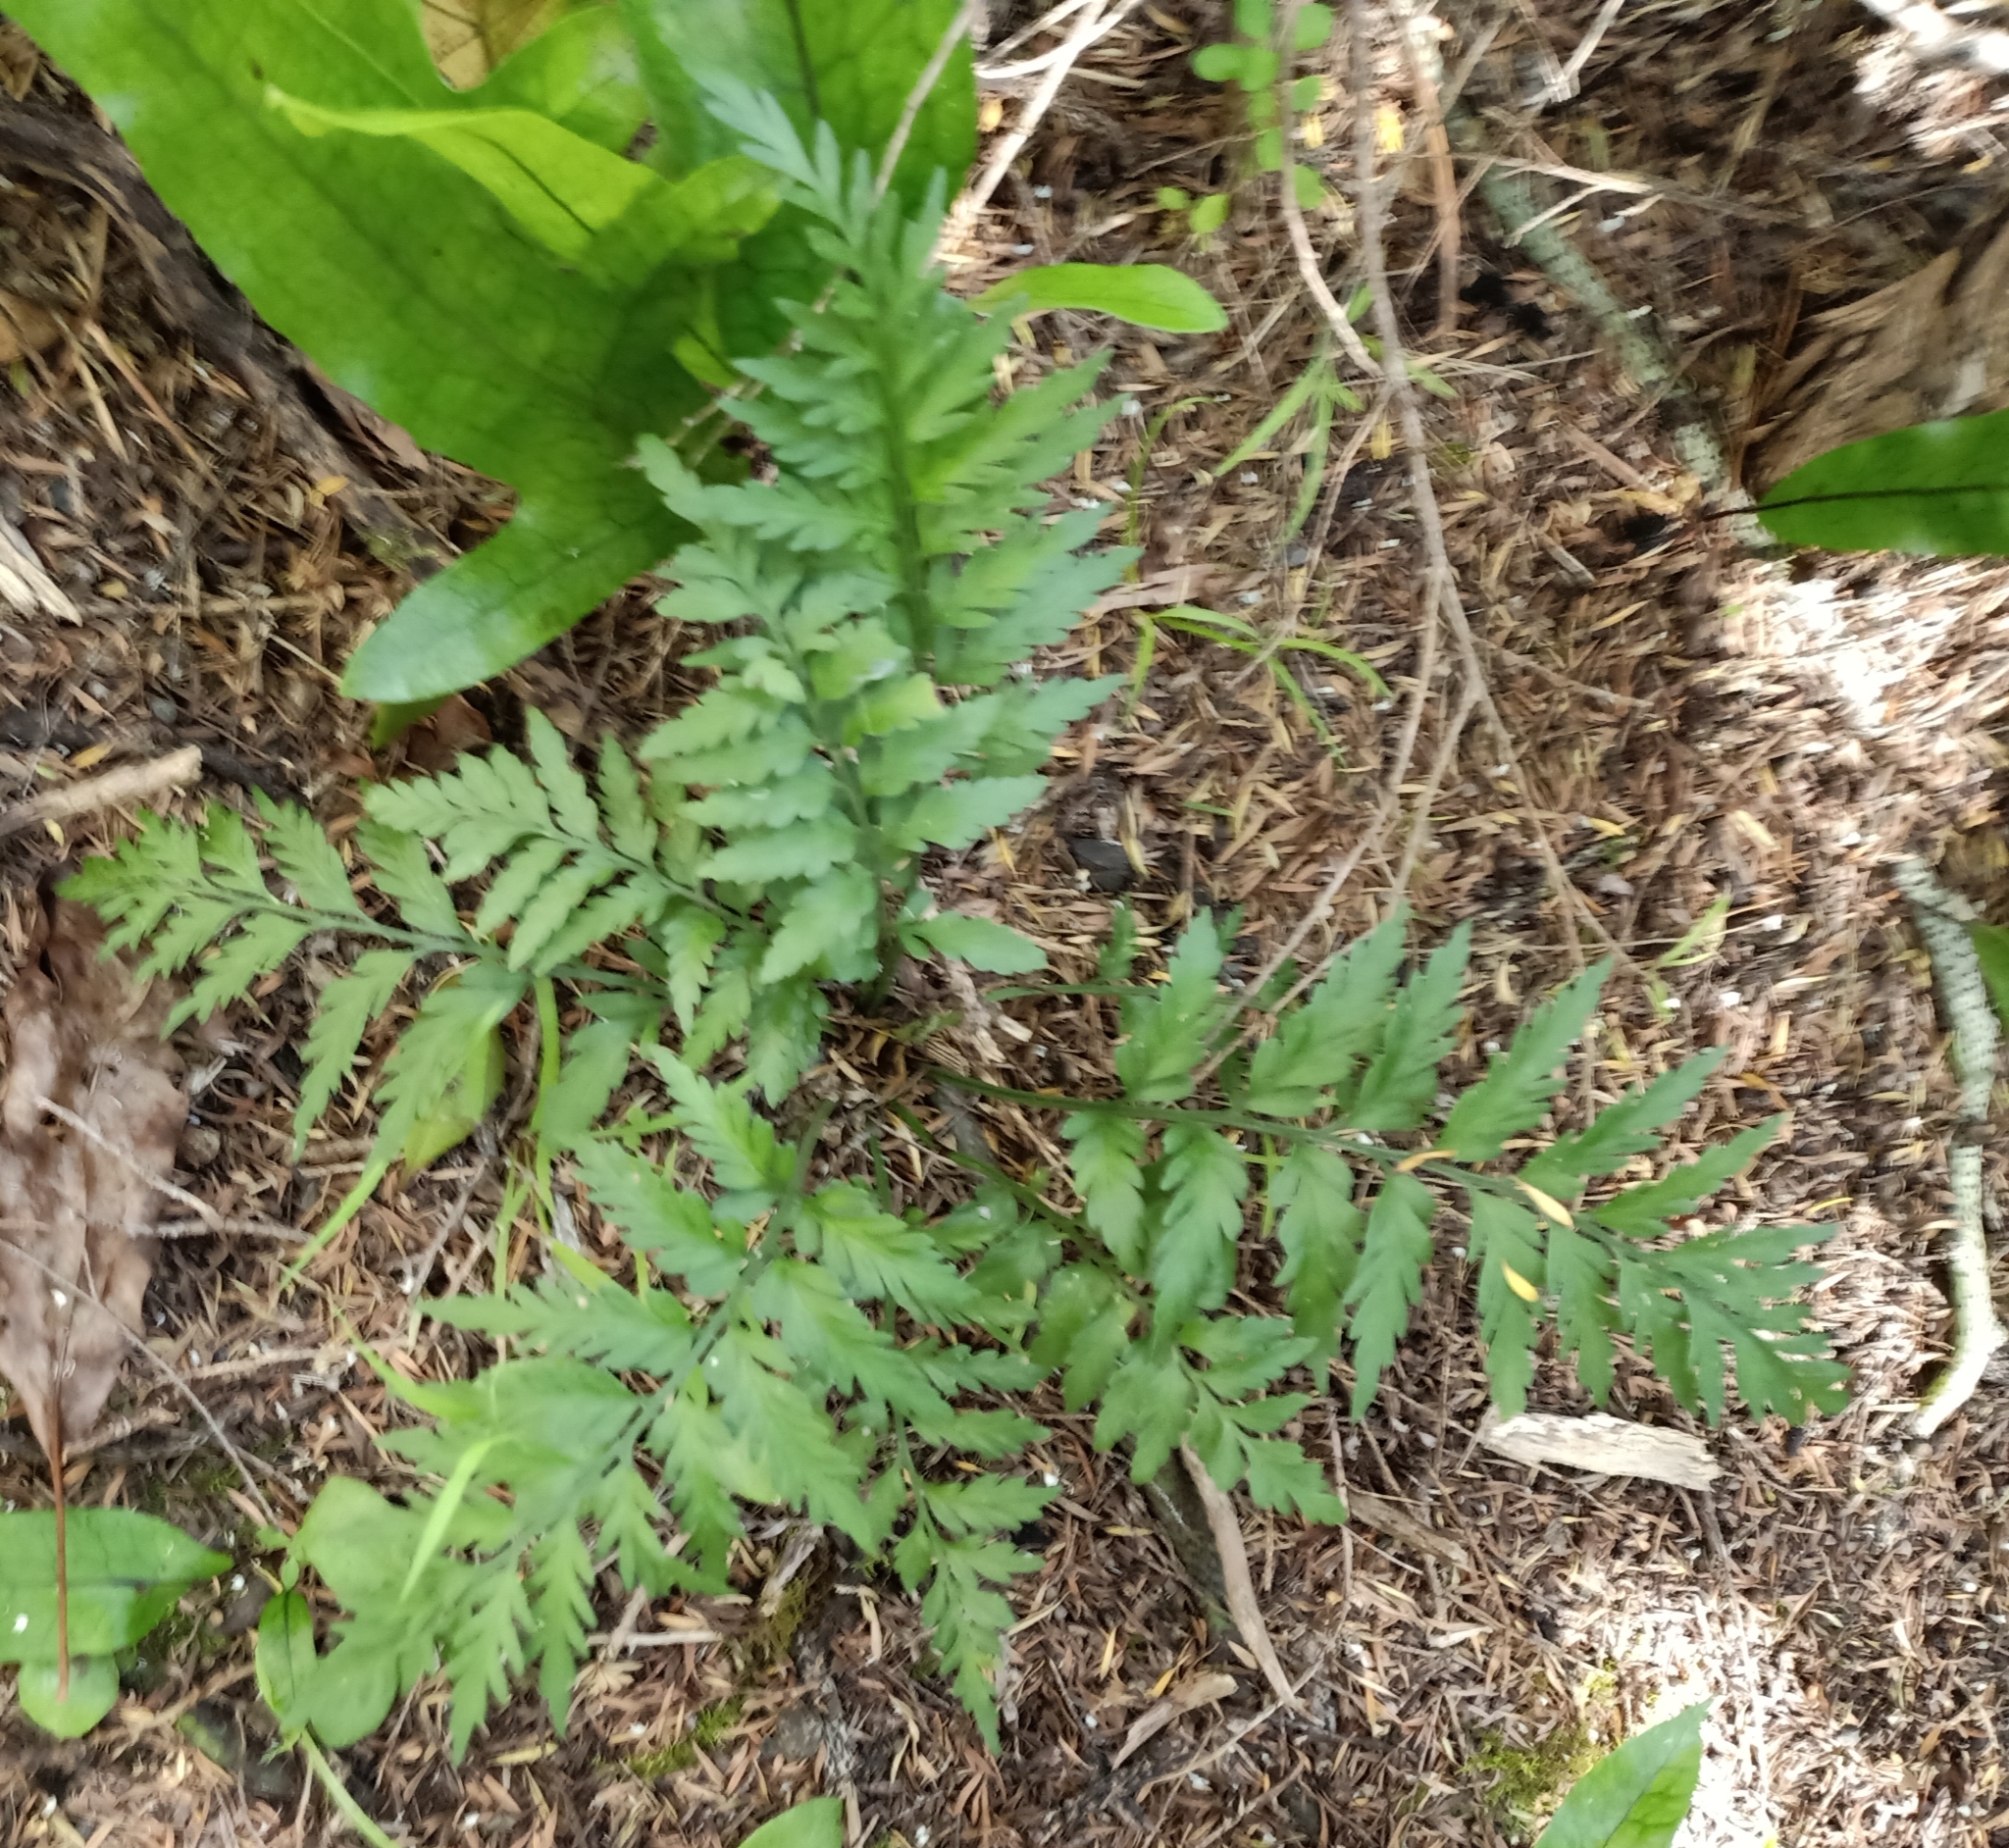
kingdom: Plantae
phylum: Tracheophyta
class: Polypodiopsida
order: Polypodiales
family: Aspleniaceae
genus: Asplenium
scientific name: Asplenium appendiculatum
